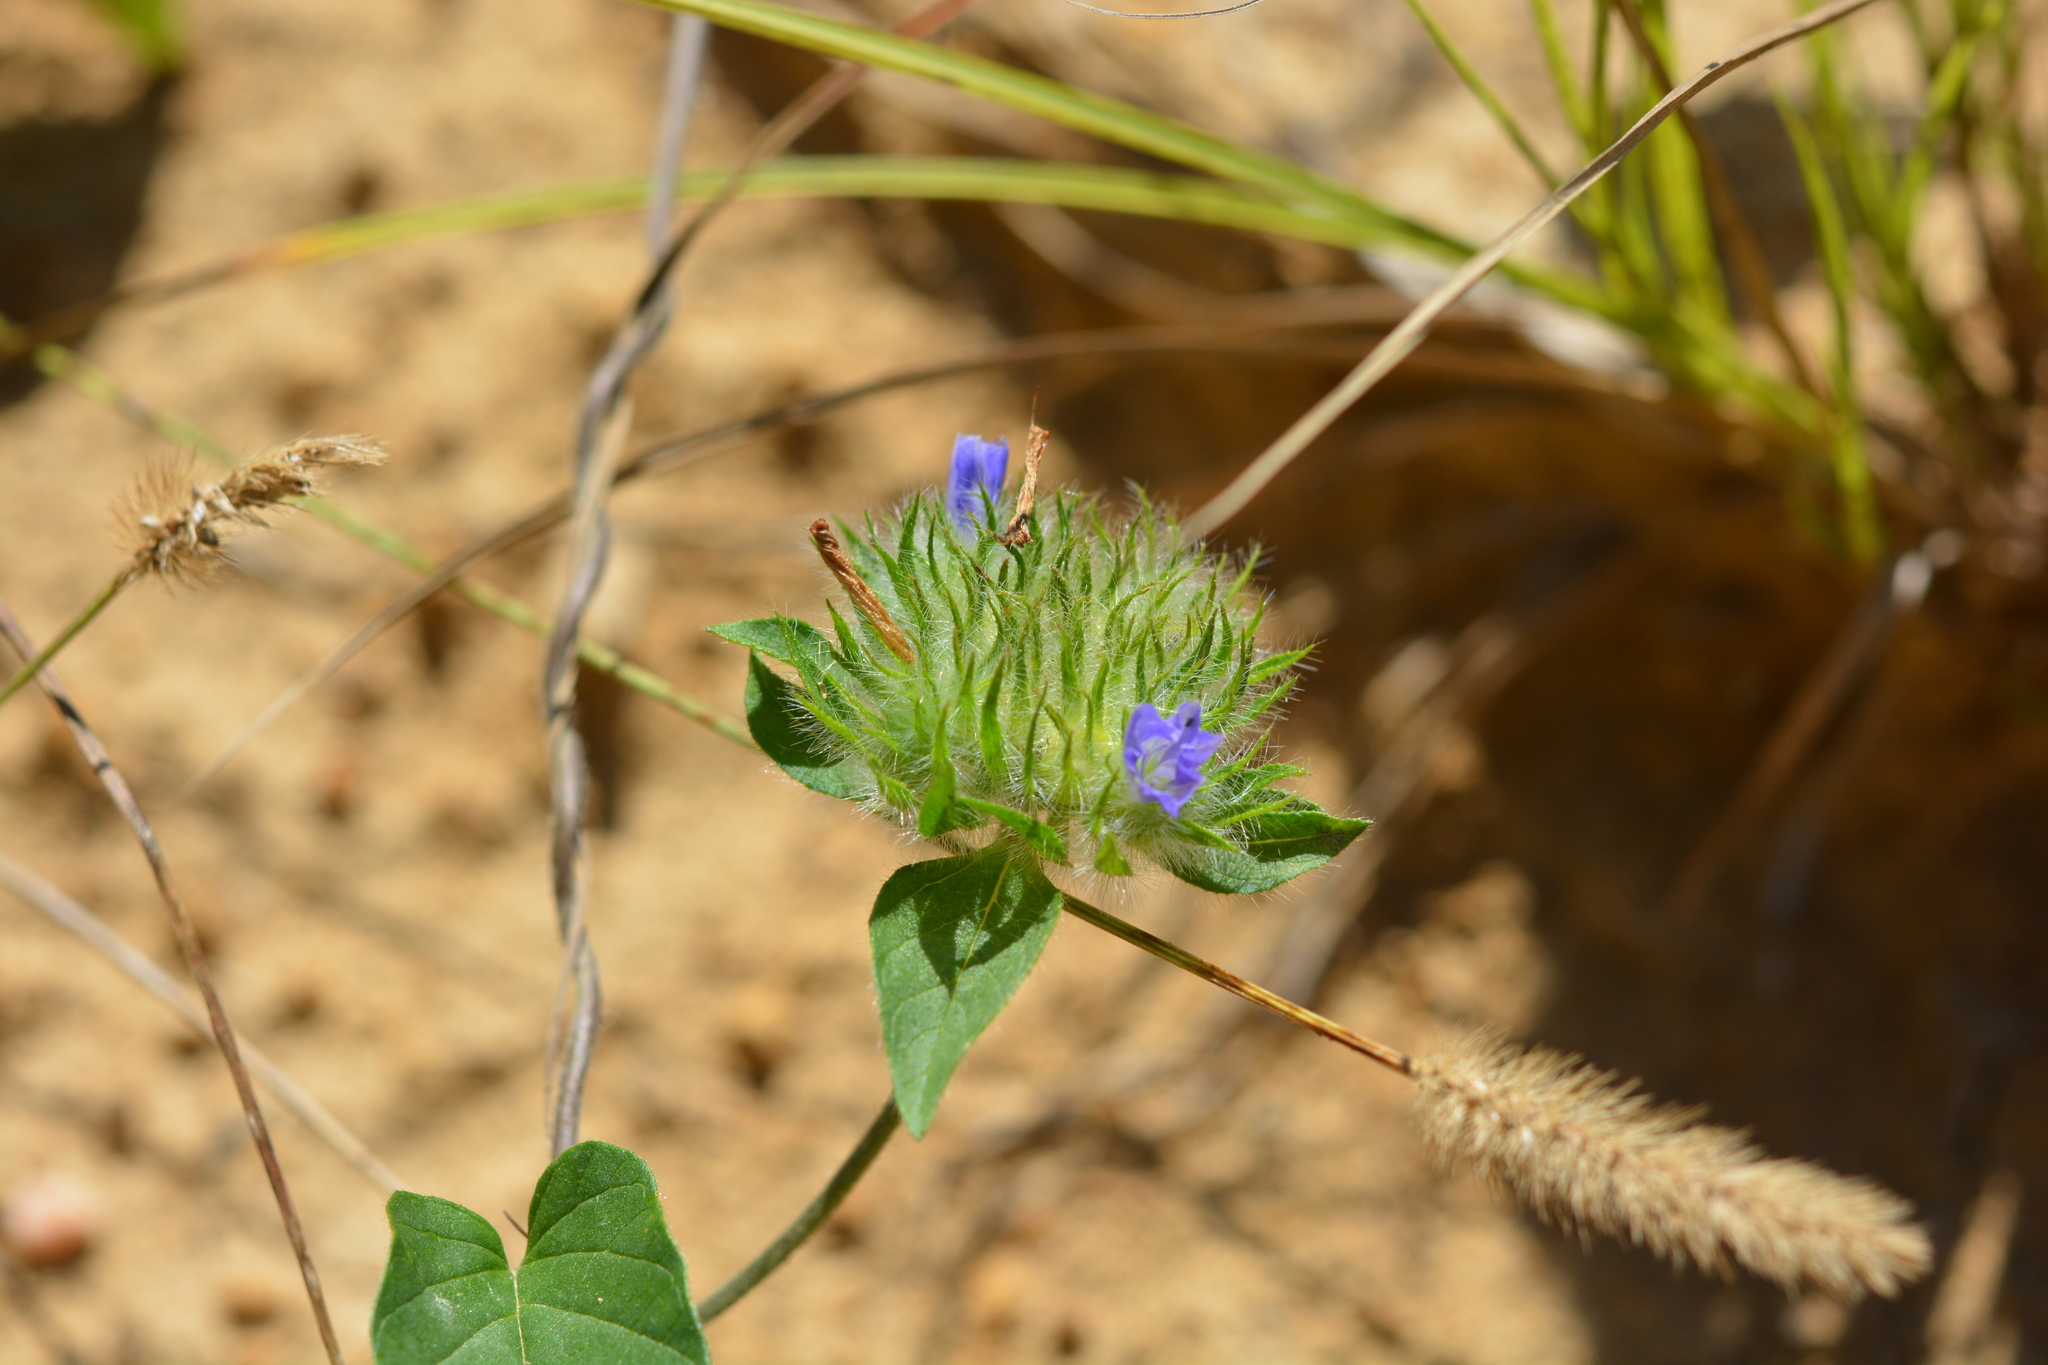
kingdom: Plantae
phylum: Tracheophyta
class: Magnoliopsida
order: Solanales
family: Convolvulaceae
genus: Jacquemontia
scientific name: Jacquemontia tamnifolia
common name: Hairy clustervine
